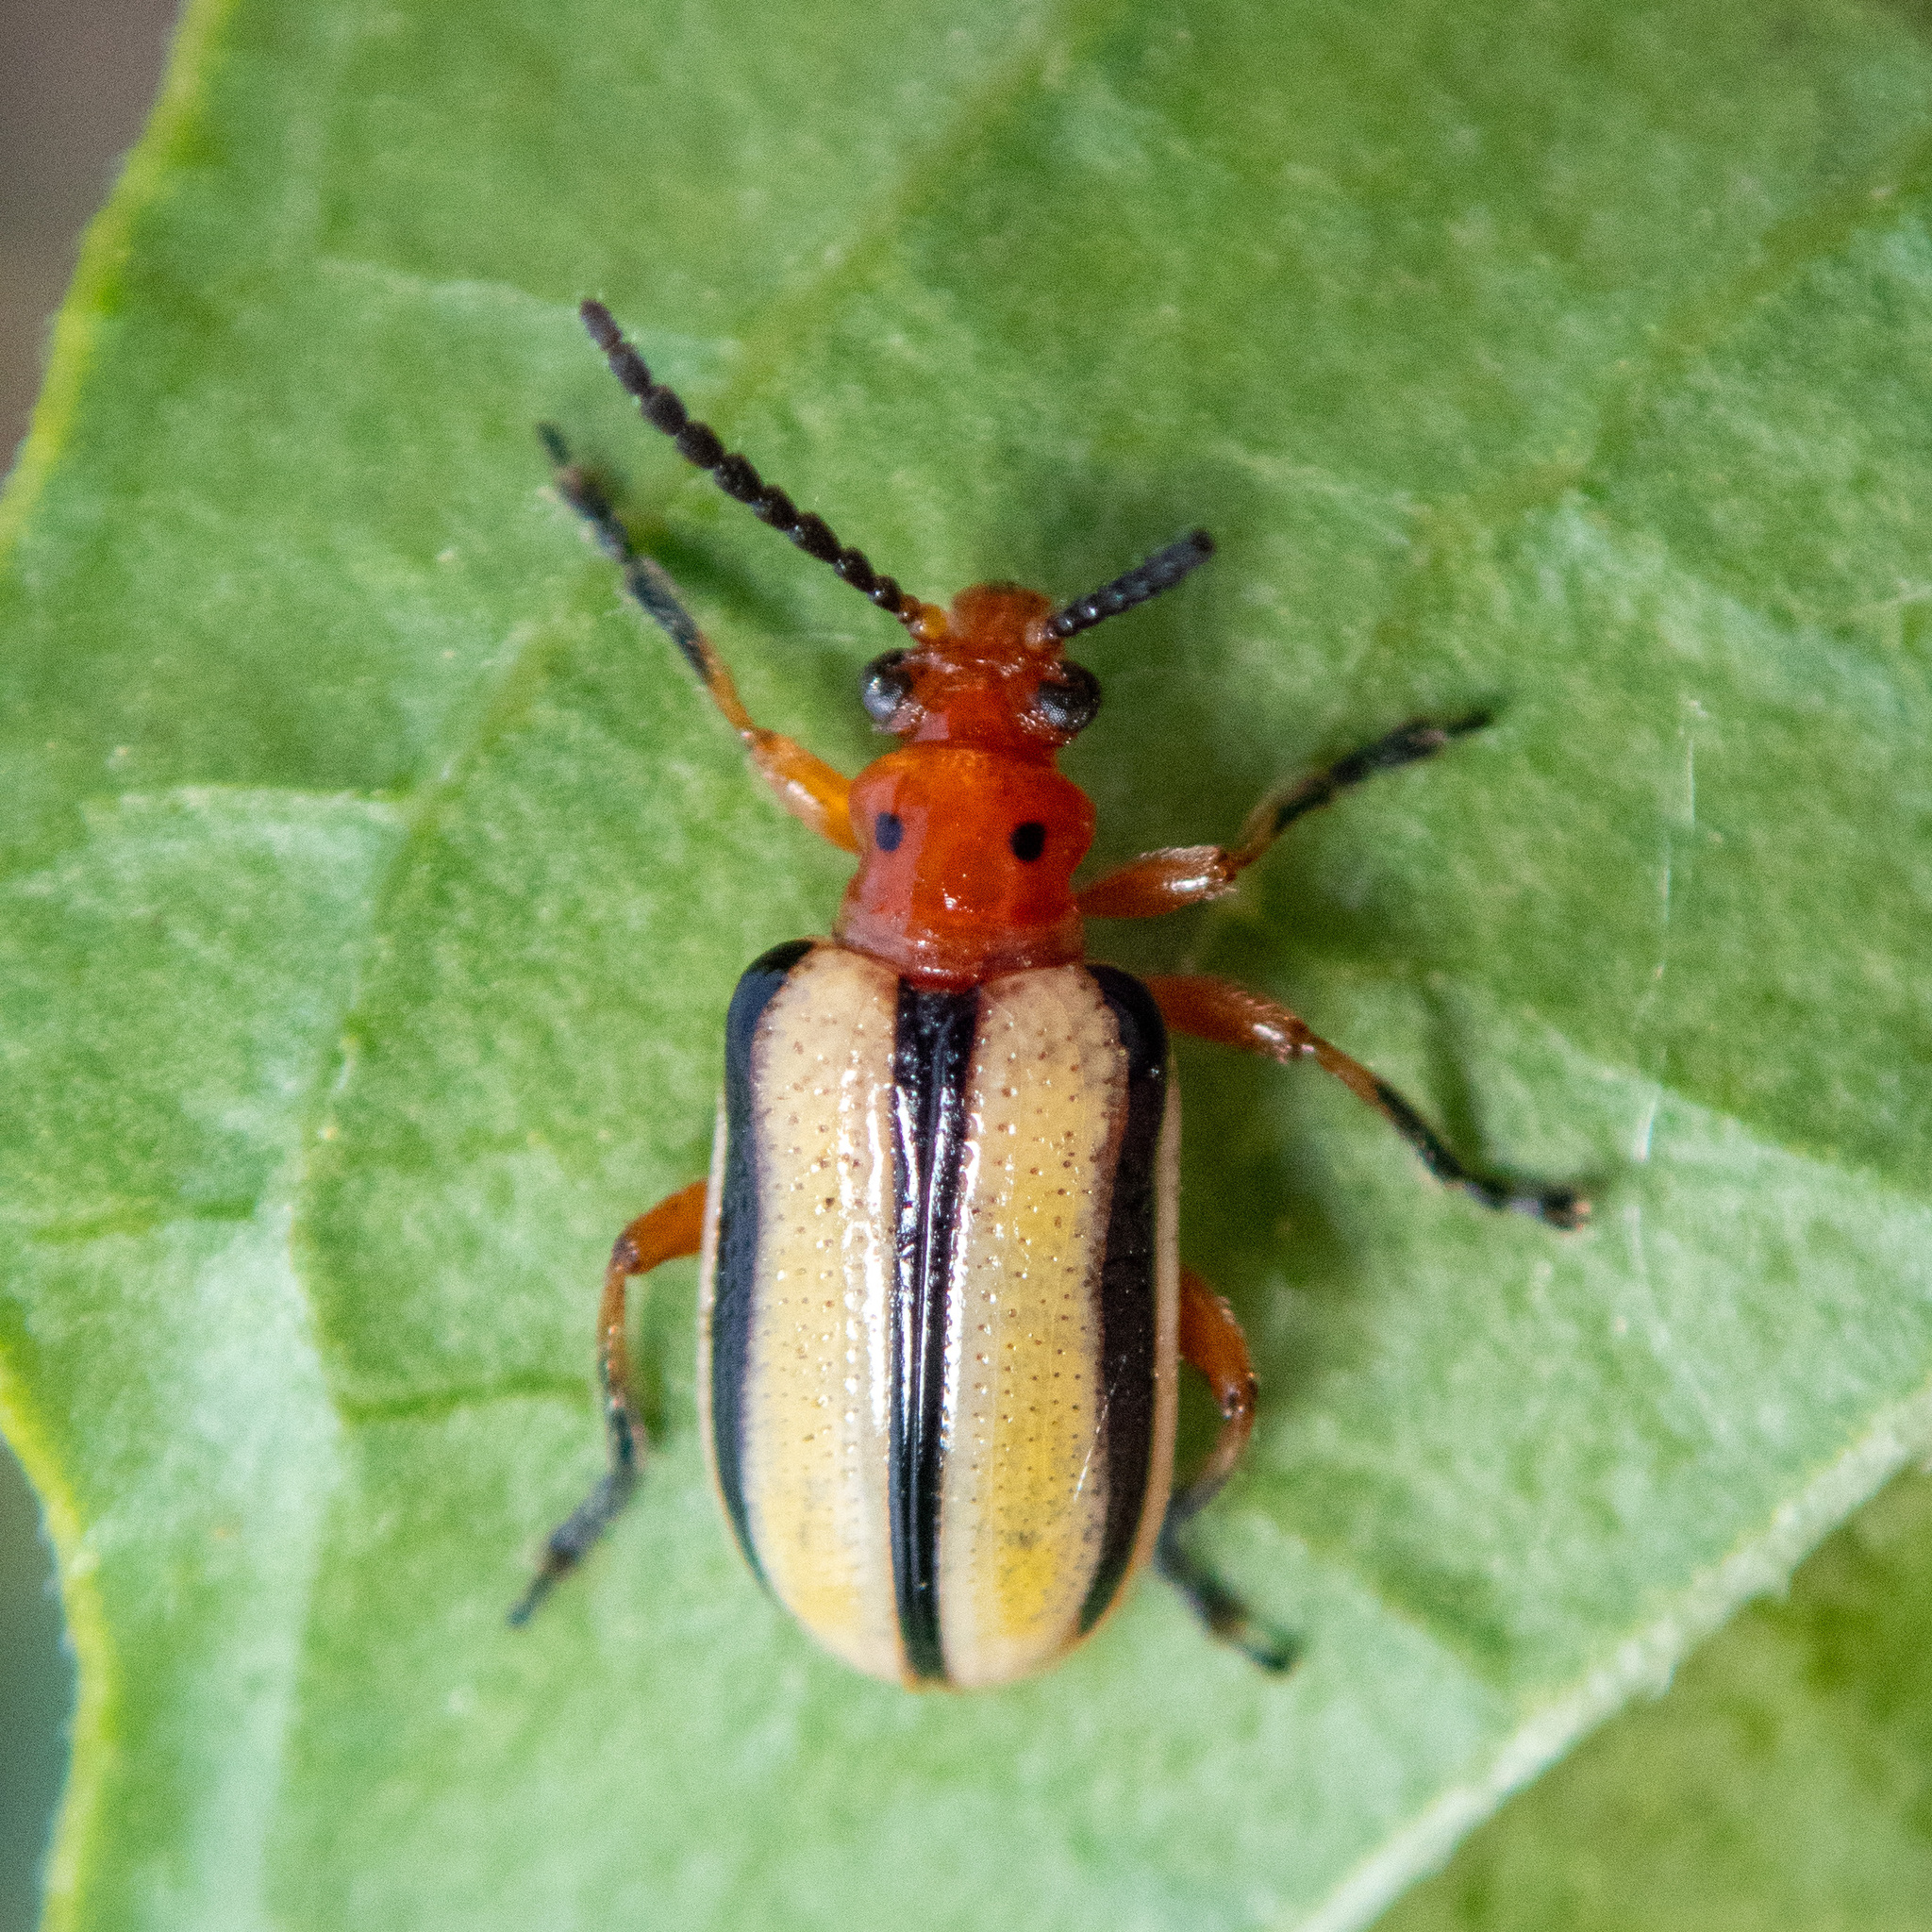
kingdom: Animalia
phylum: Arthropoda
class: Insecta
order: Coleoptera
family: Chrysomelidae
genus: Lema
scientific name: Lema daturaphila
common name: Leaf beetle
